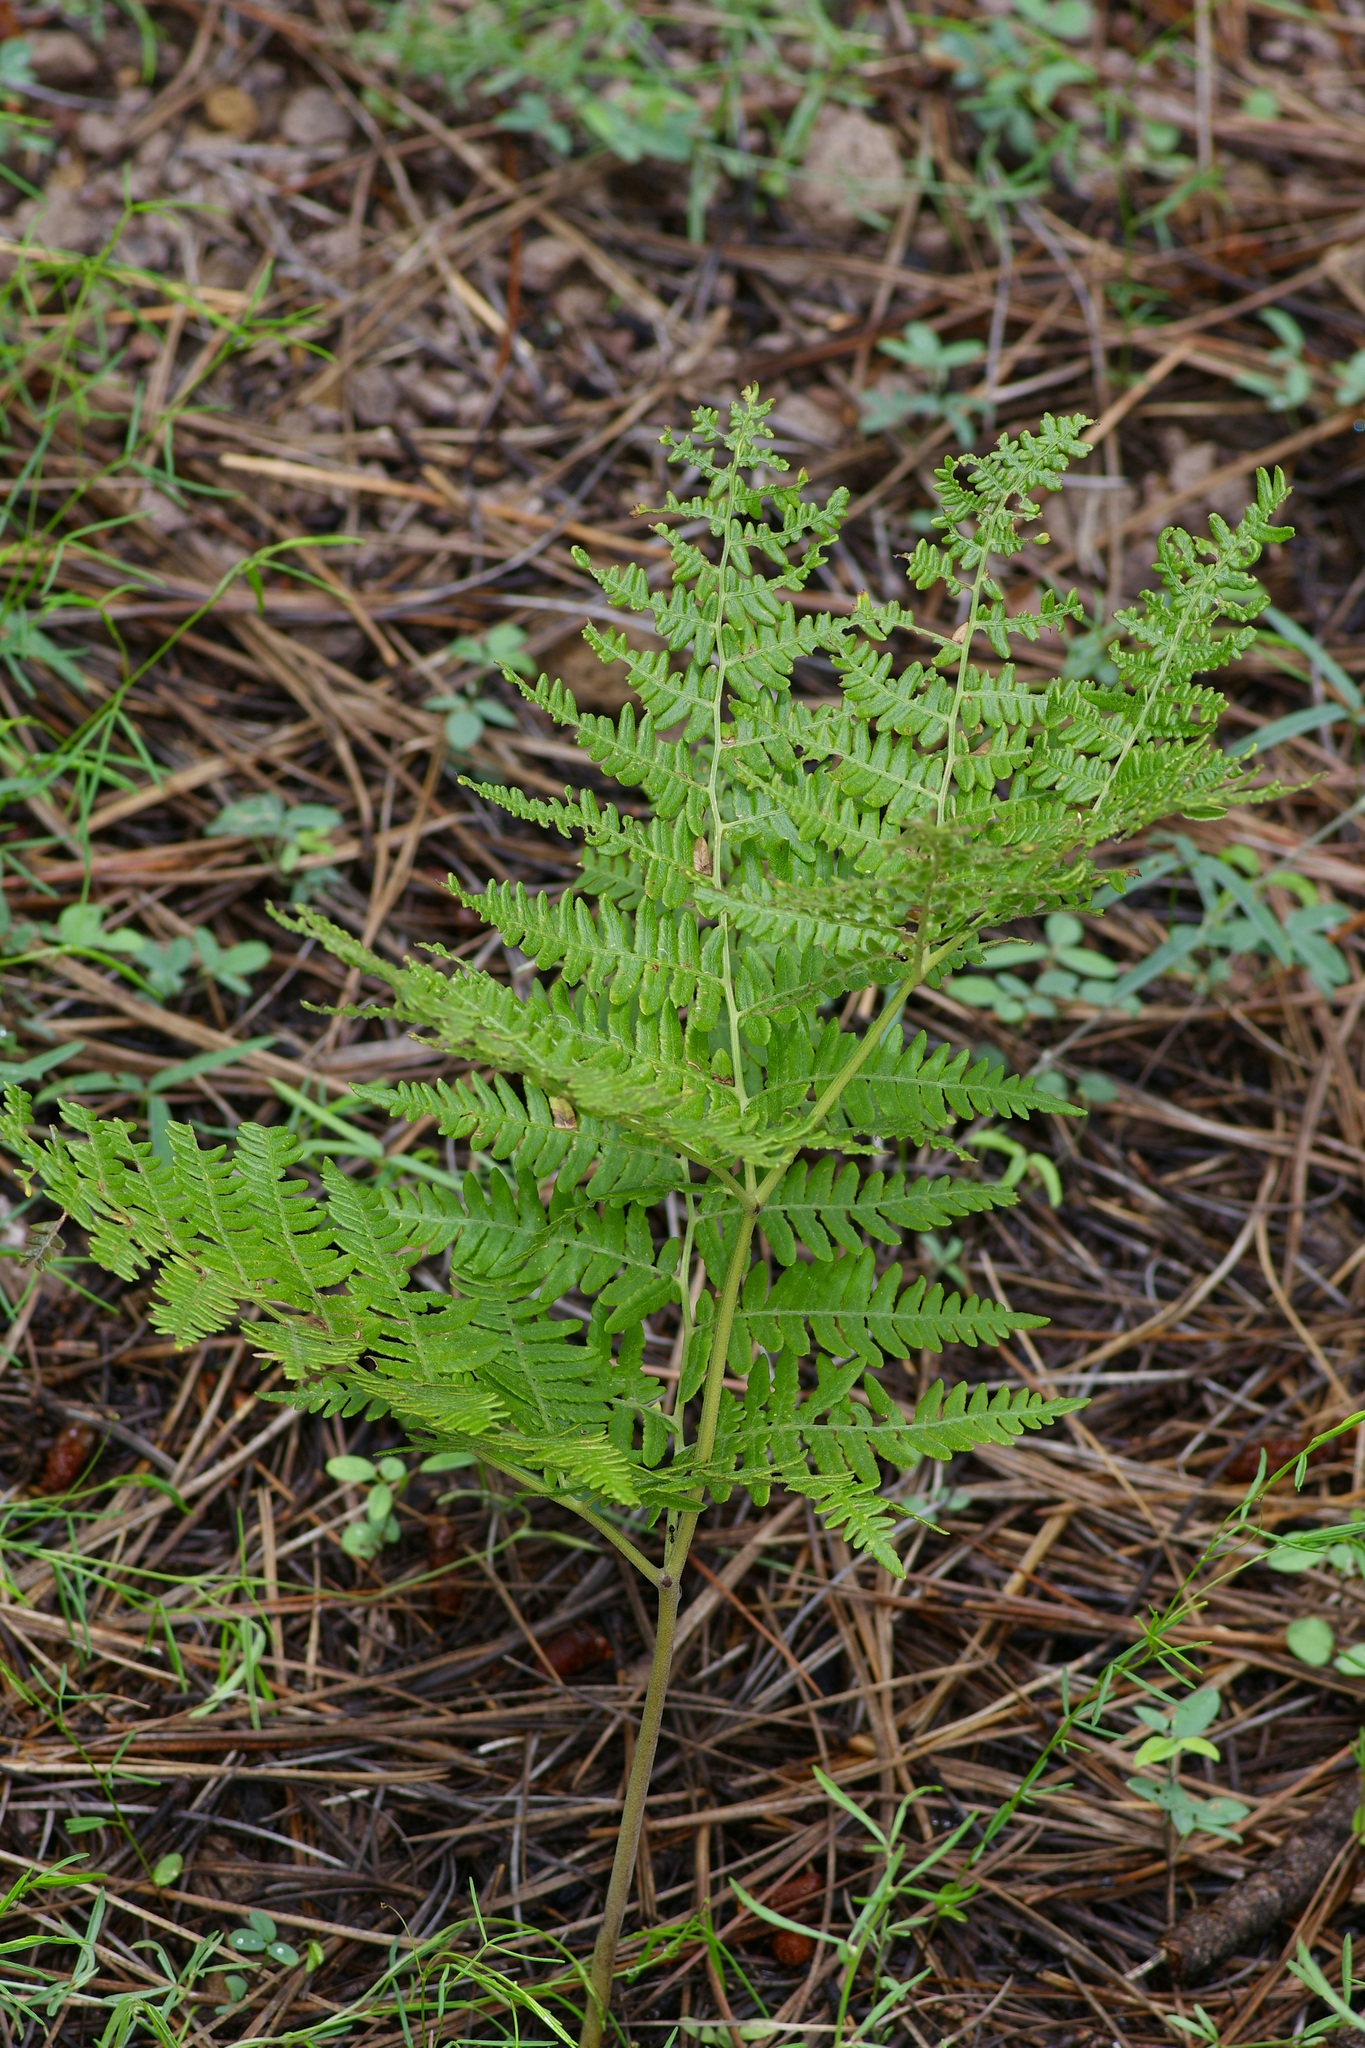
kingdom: Plantae
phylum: Tracheophyta
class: Polypodiopsida
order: Polypodiales
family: Dennstaedtiaceae
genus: Pteridium
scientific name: Pteridium aquilinum
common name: Bracken
